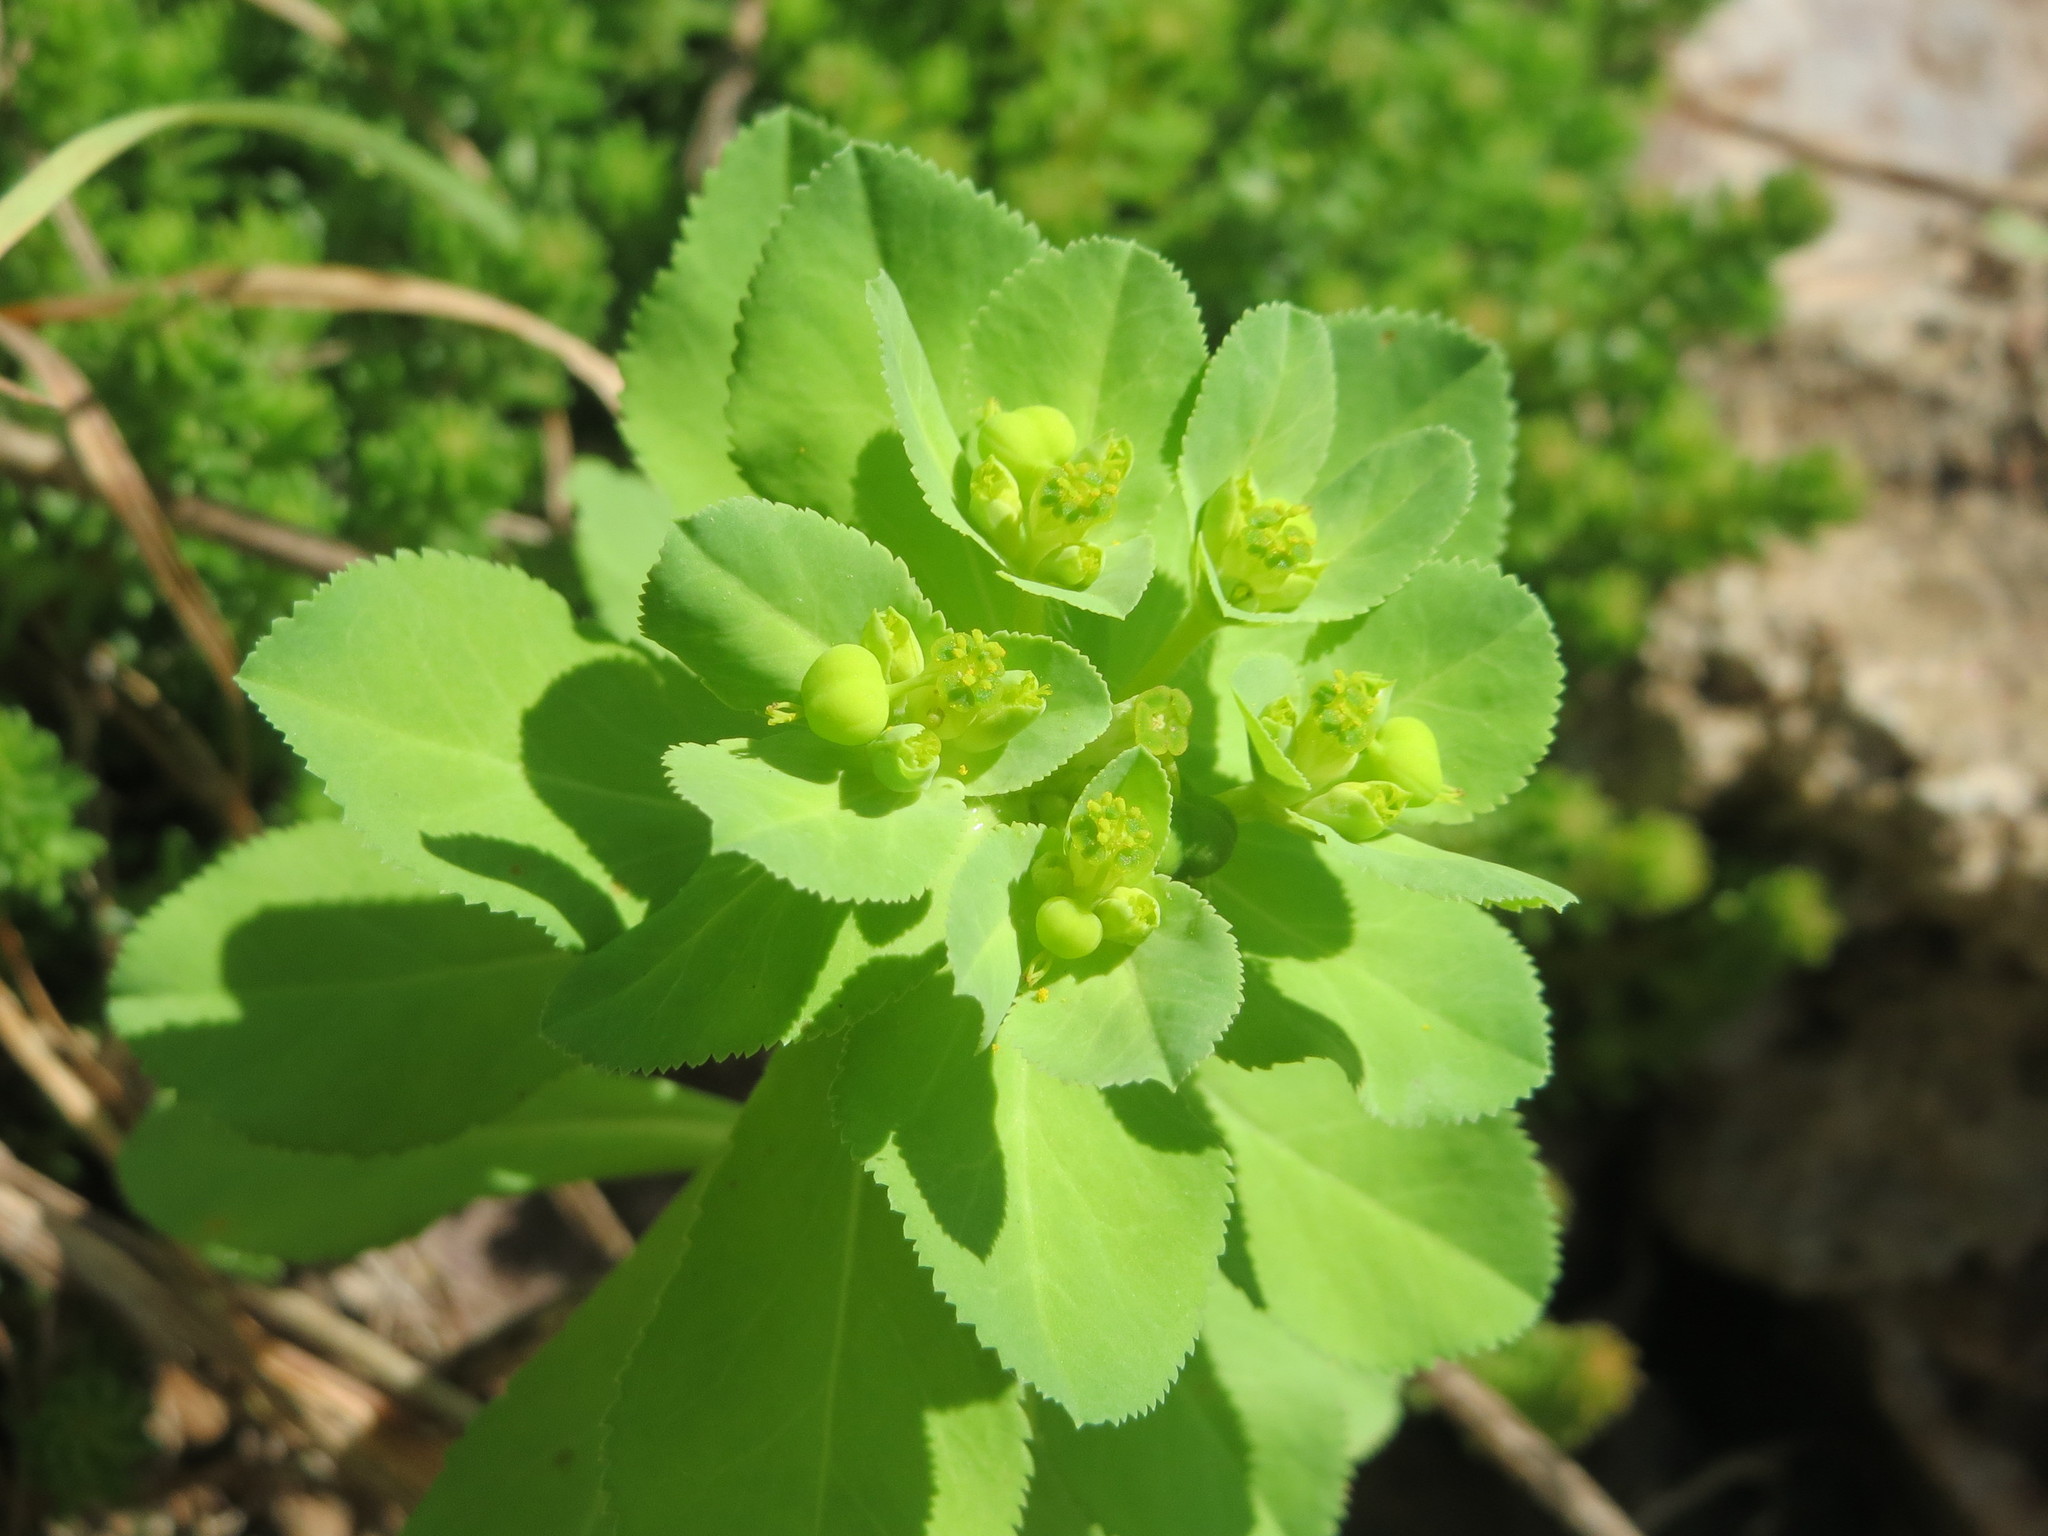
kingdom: Plantae
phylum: Tracheophyta
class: Magnoliopsida
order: Malpighiales
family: Euphorbiaceae
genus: Euphorbia
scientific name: Euphorbia helioscopia
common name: Sun spurge
